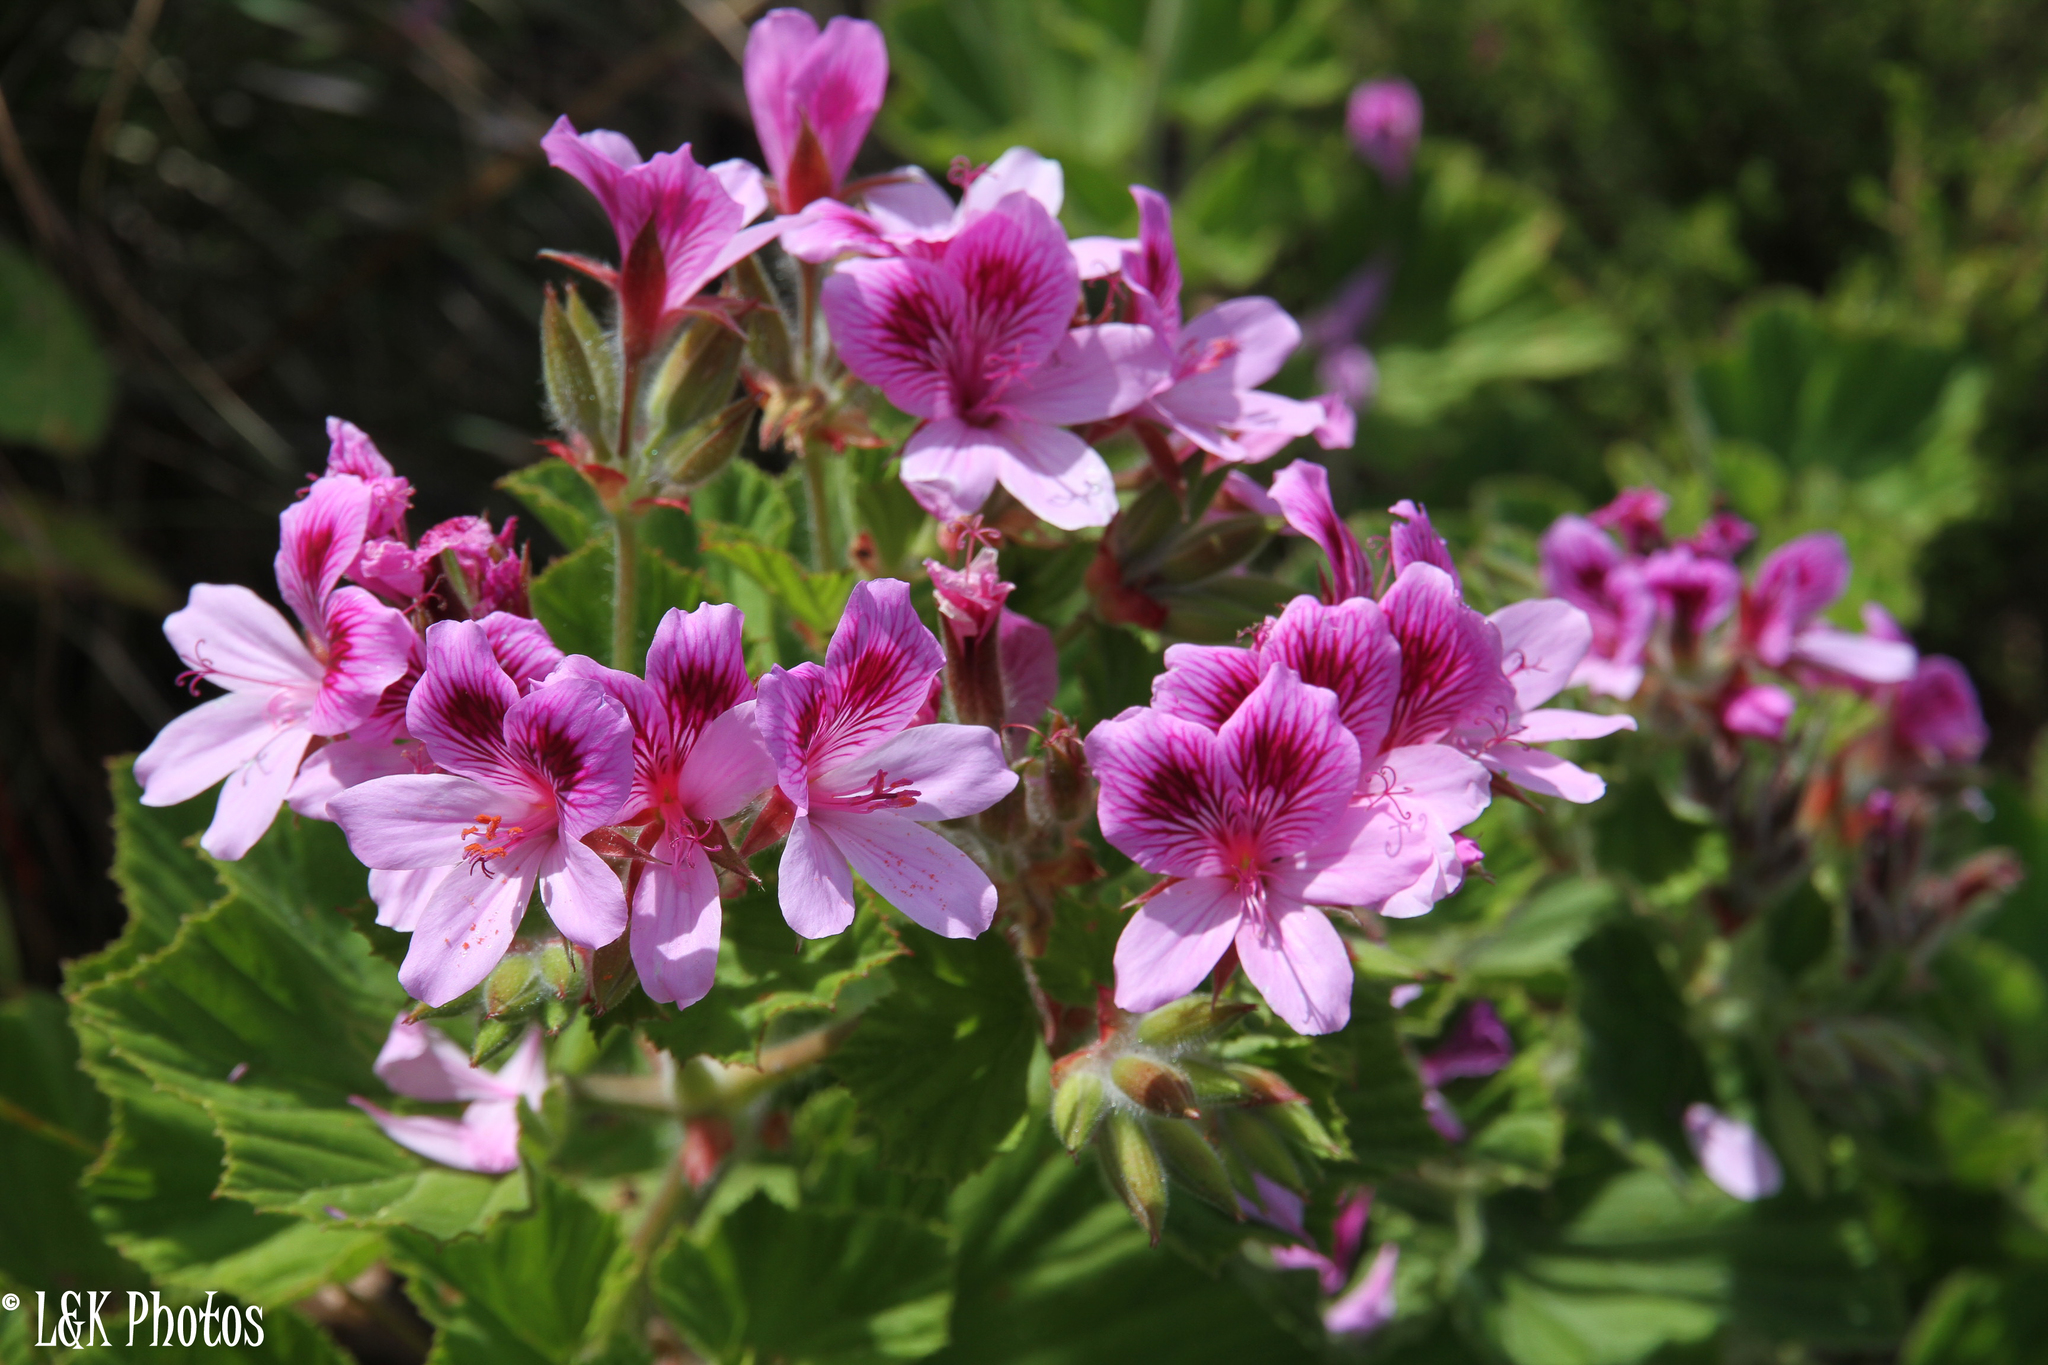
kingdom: Plantae
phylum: Tracheophyta
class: Magnoliopsida
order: Geraniales
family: Geraniaceae
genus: Pelargonium
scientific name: Pelargonium cucullatum
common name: Tree pelargonium
